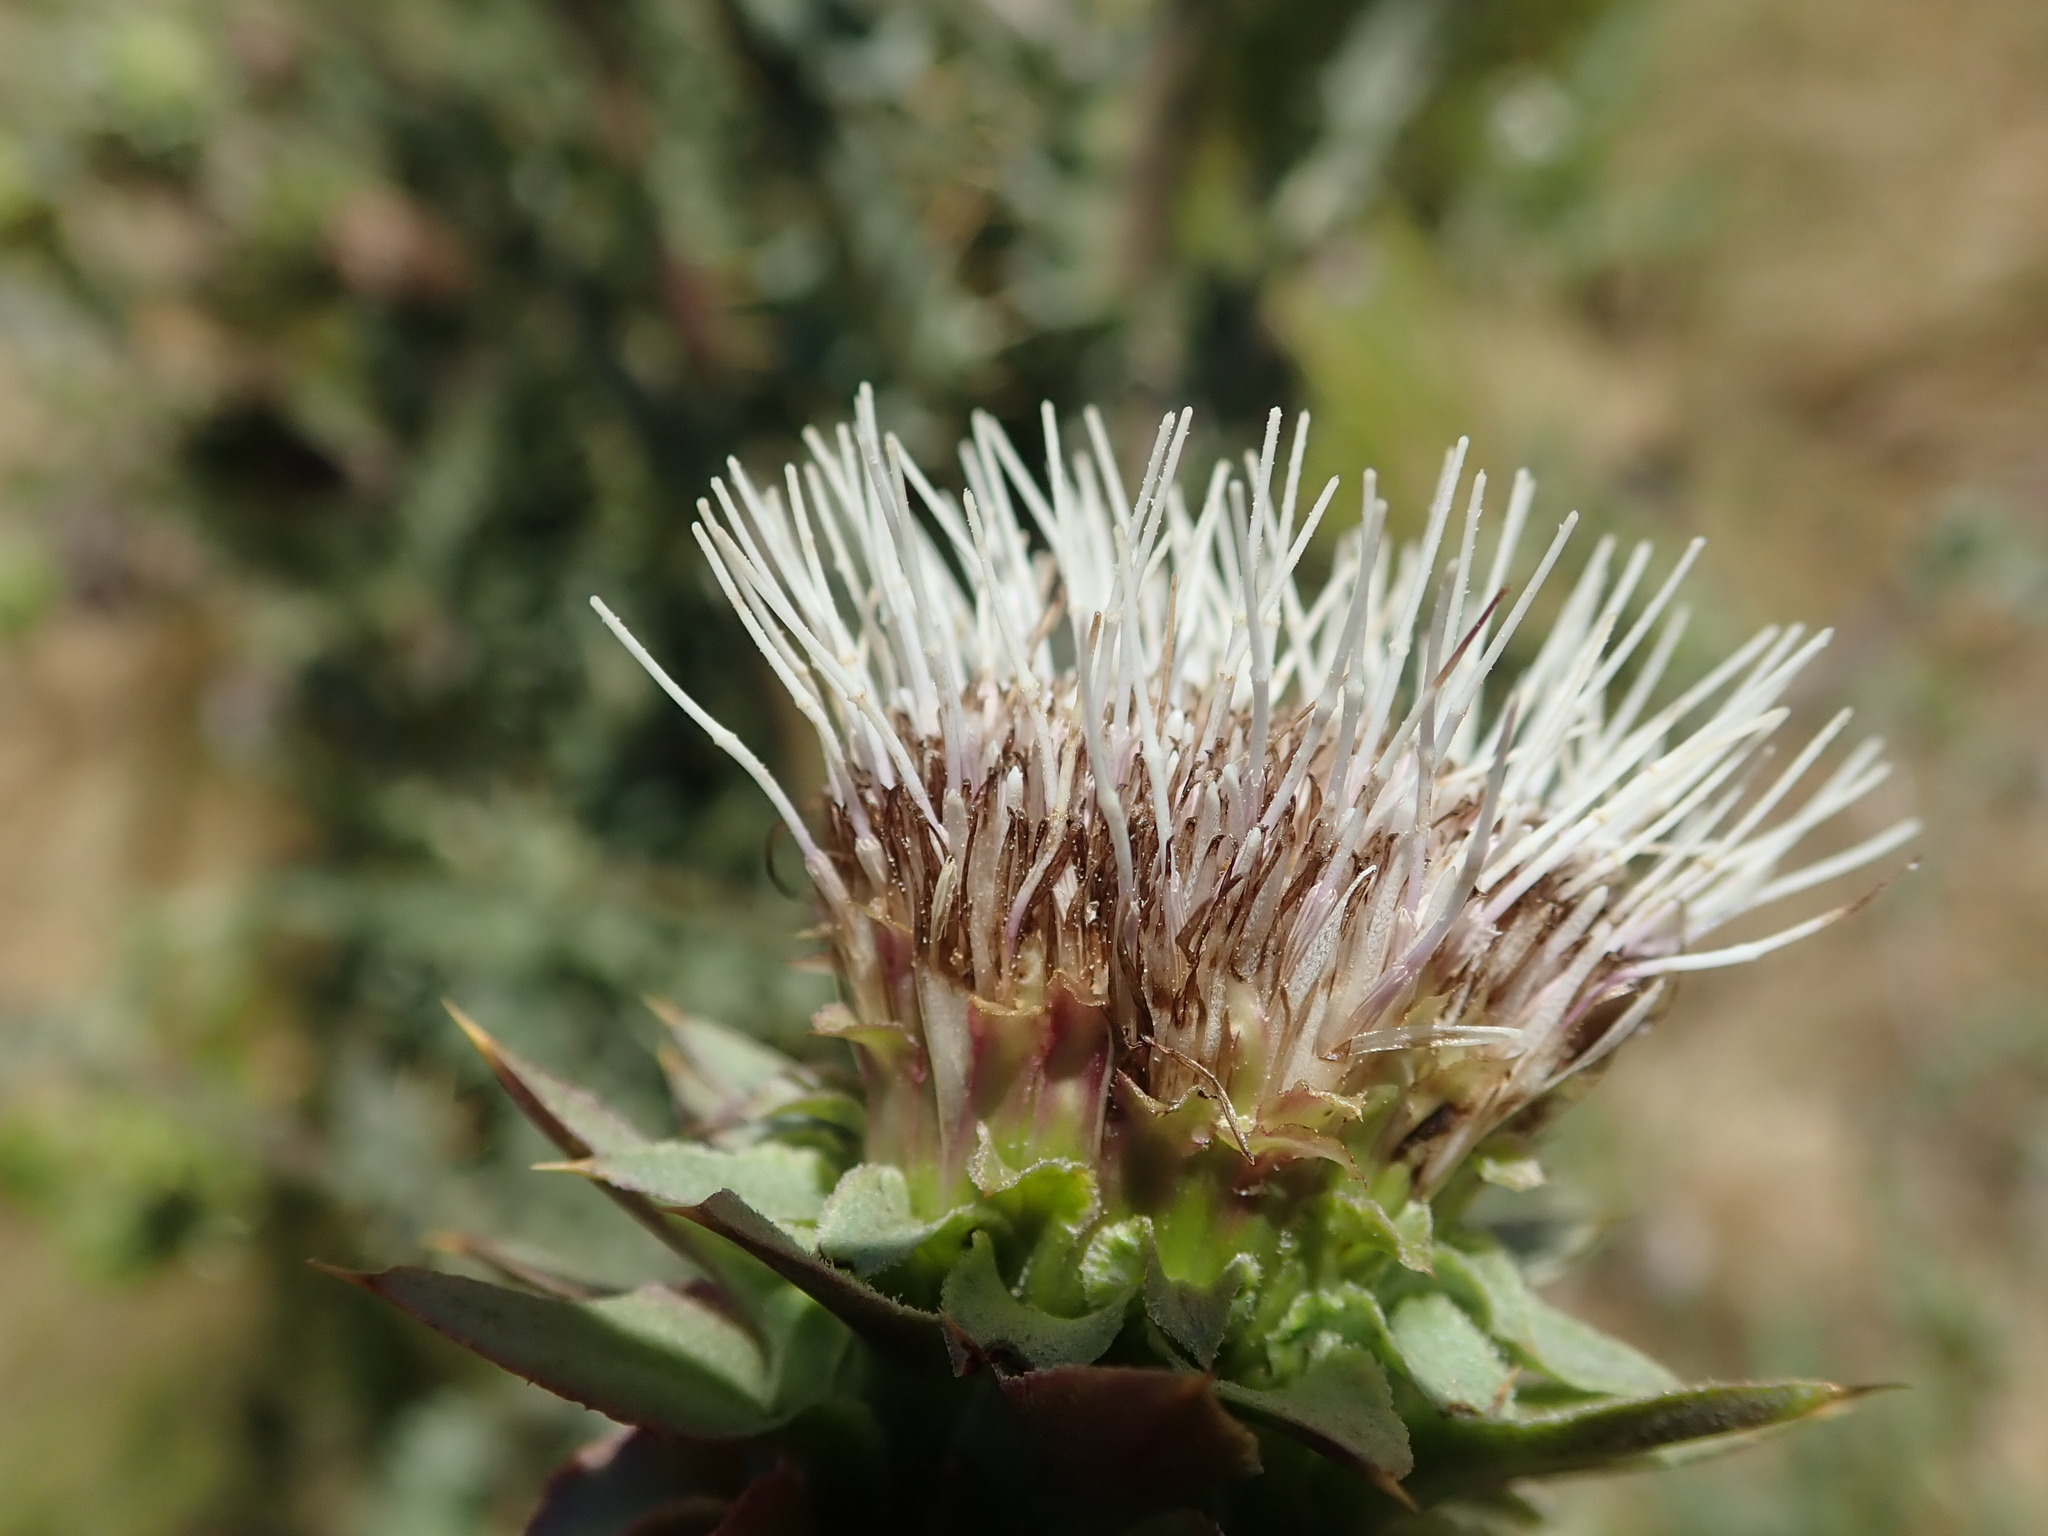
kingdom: Plantae
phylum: Tracheophyta
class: Magnoliopsida
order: Asterales
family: Asteraceae
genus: Cirsium
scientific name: Cirsium fontinale
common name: Fountain thistle
